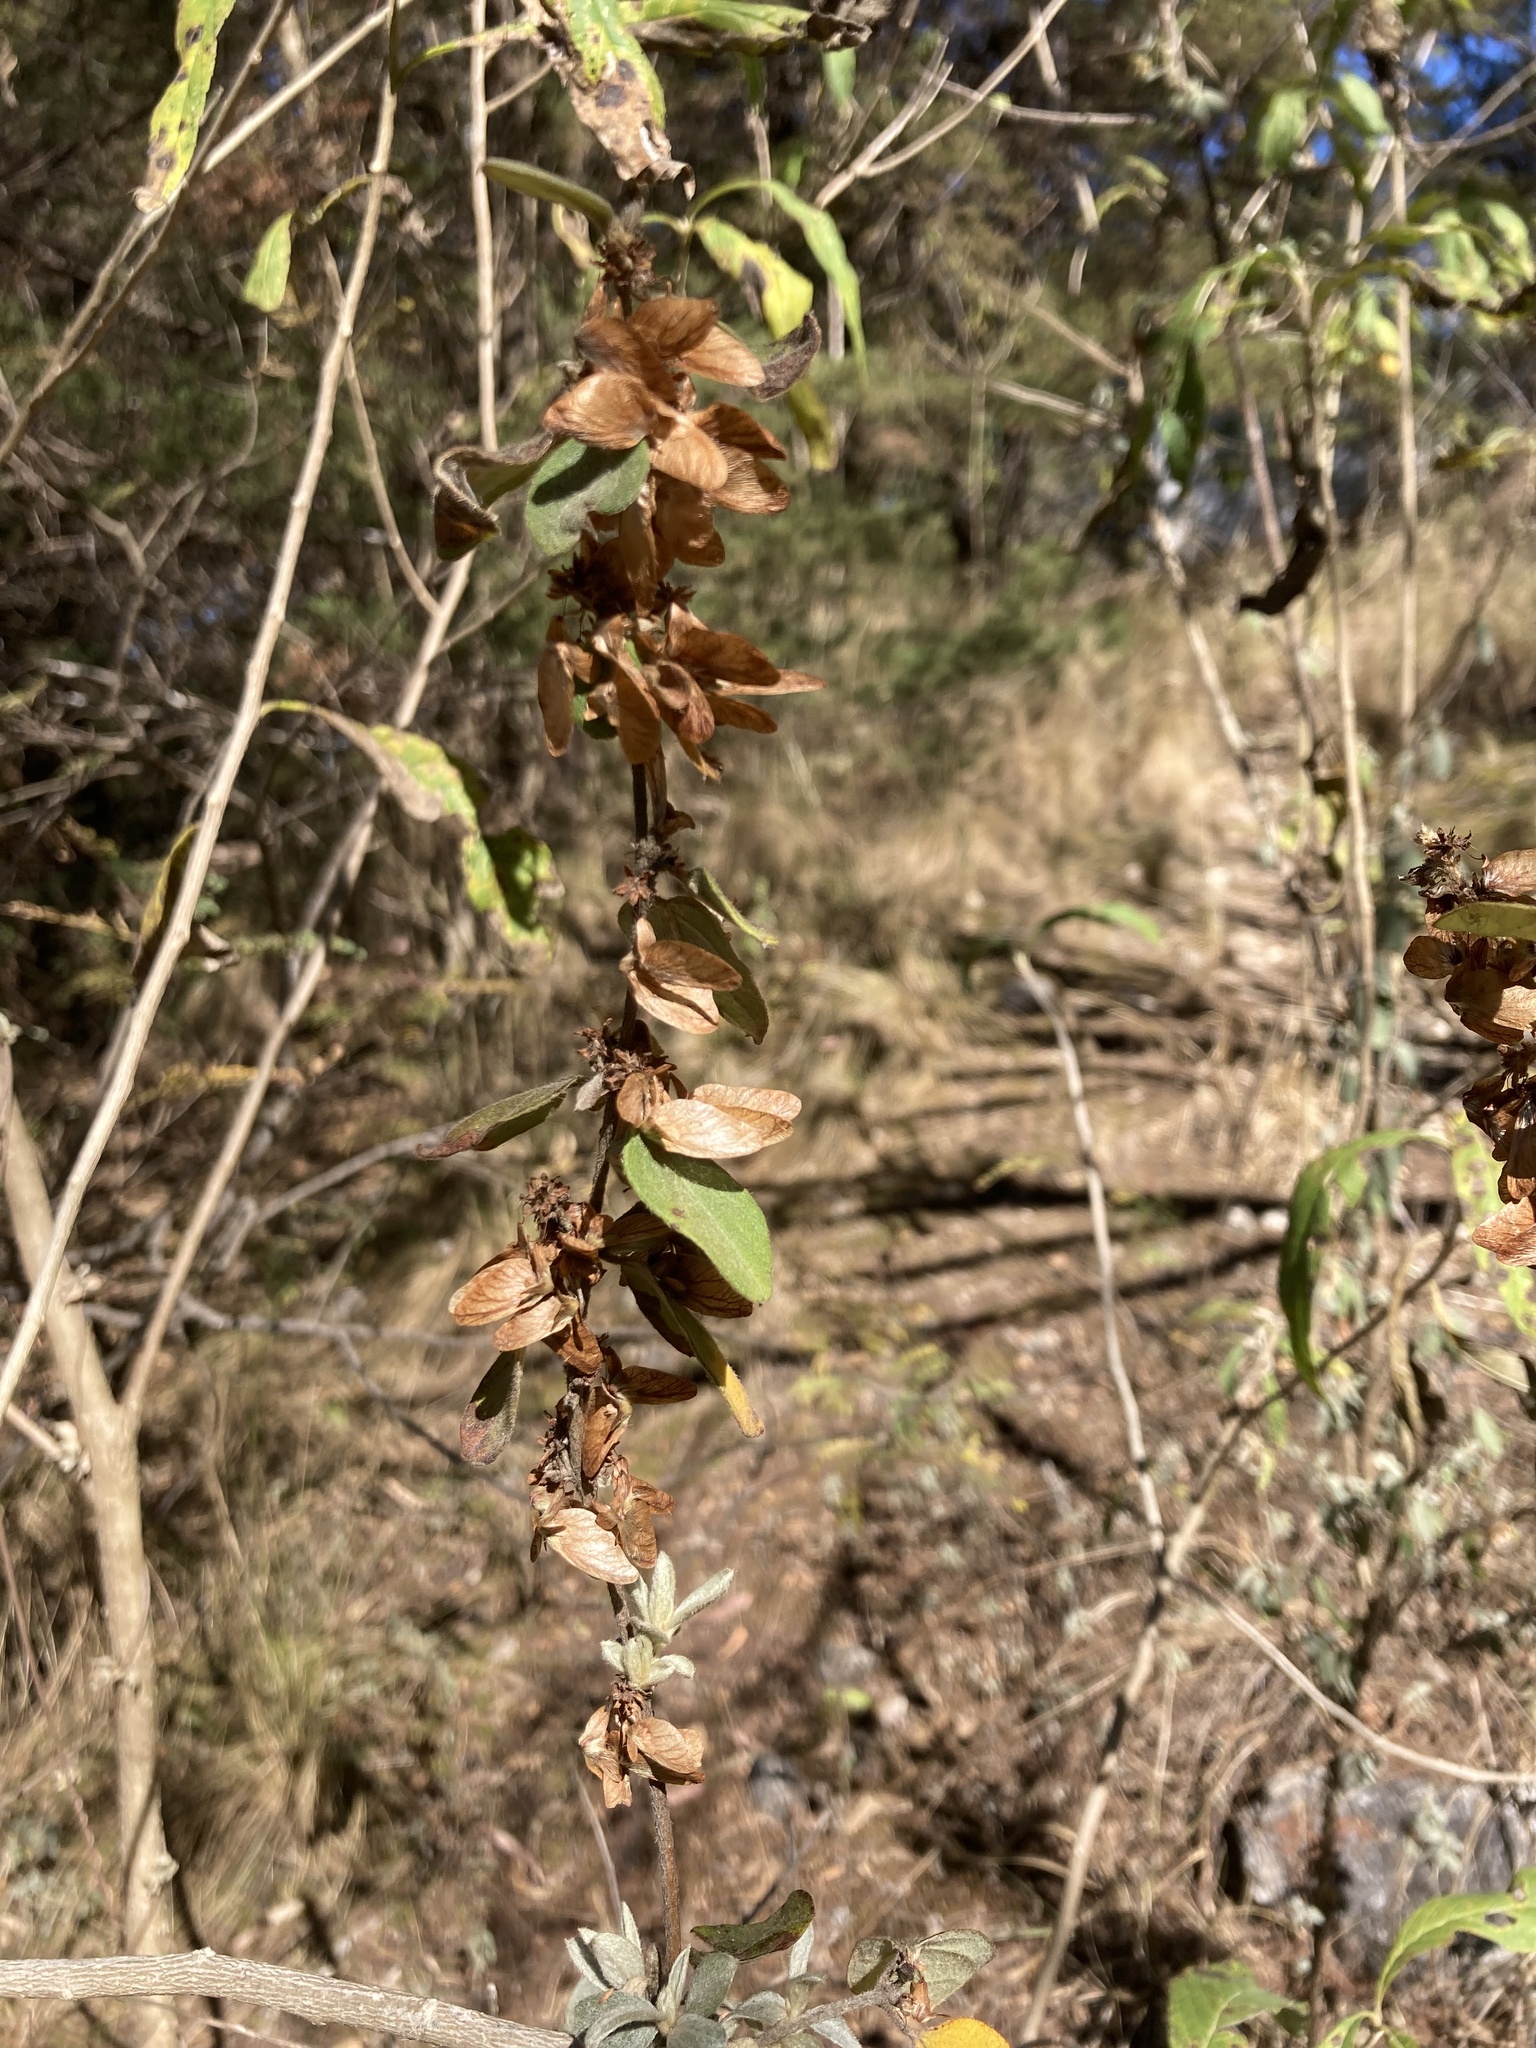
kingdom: Plantae
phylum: Tracheophyta
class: Magnoliopsida
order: Malpighiales
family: Malpighiaceae
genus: Gaudichaudia
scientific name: Gaudichaudia cynanchoides
